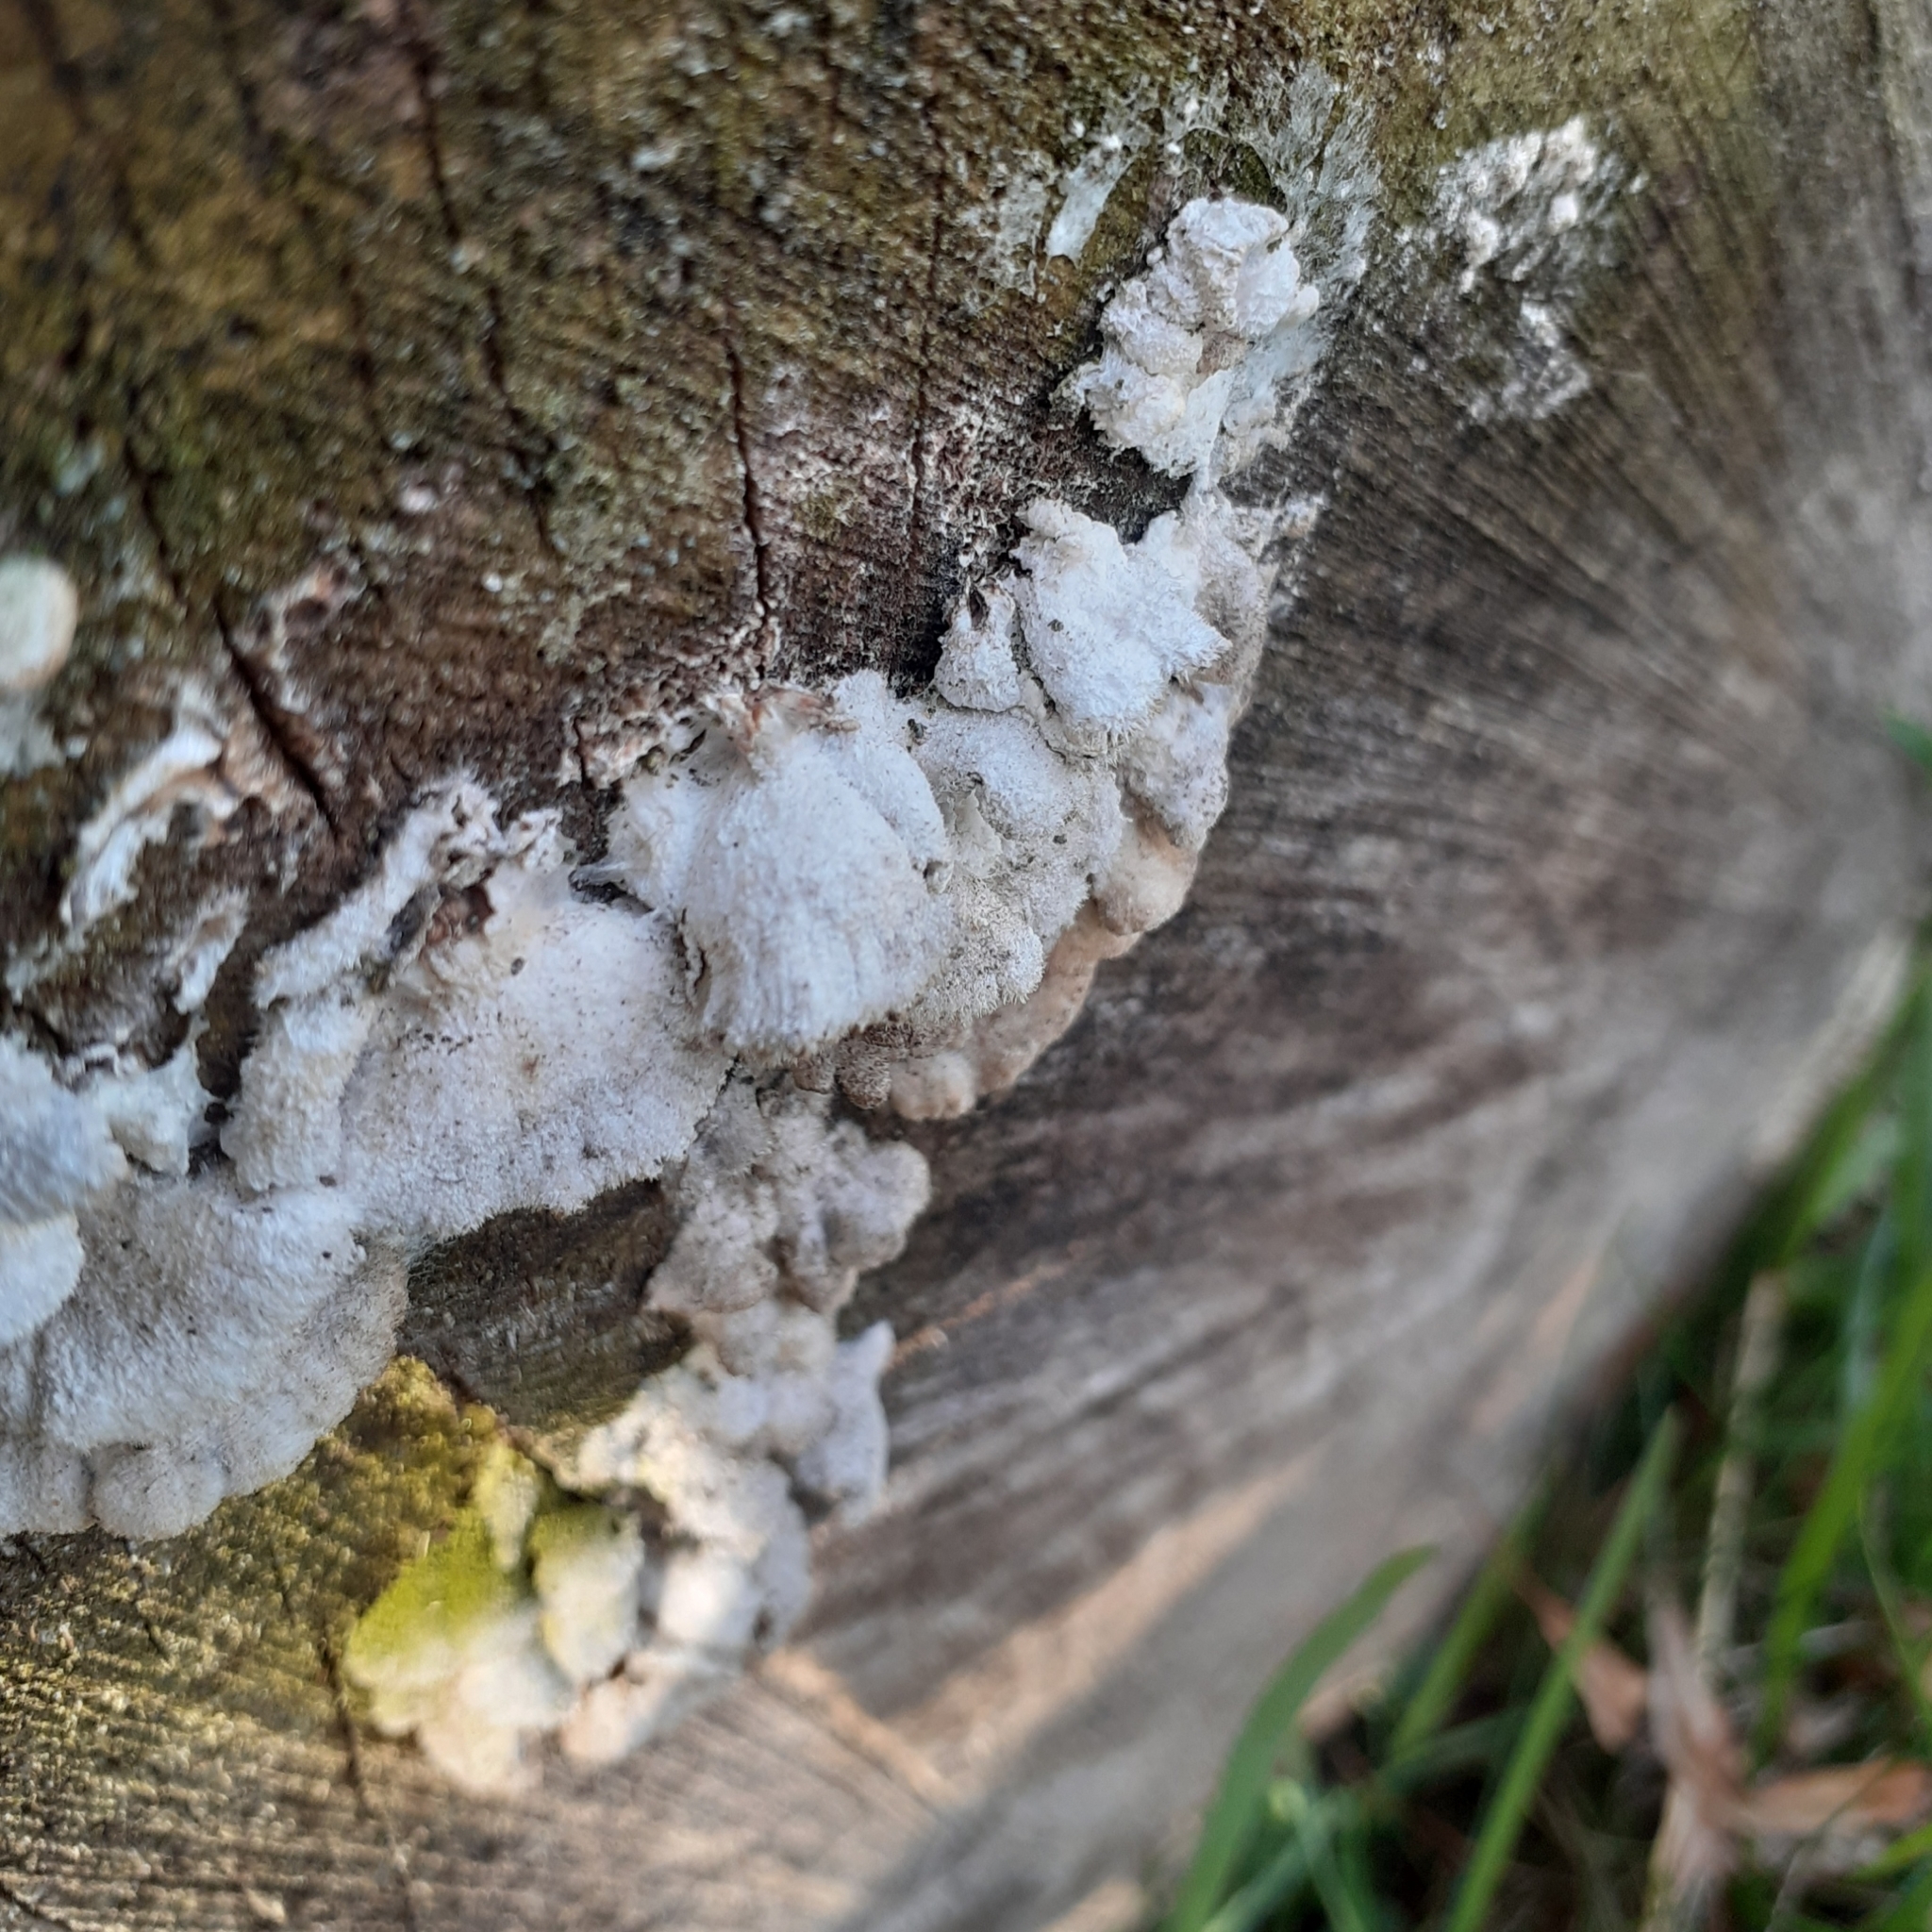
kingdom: Fungi
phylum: Basidiomycota
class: Agaricomycetes
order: Agaricales
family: Schizophyllaceae
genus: Schizophyllum
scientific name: Schizophyllum commune
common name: Common porecrust
